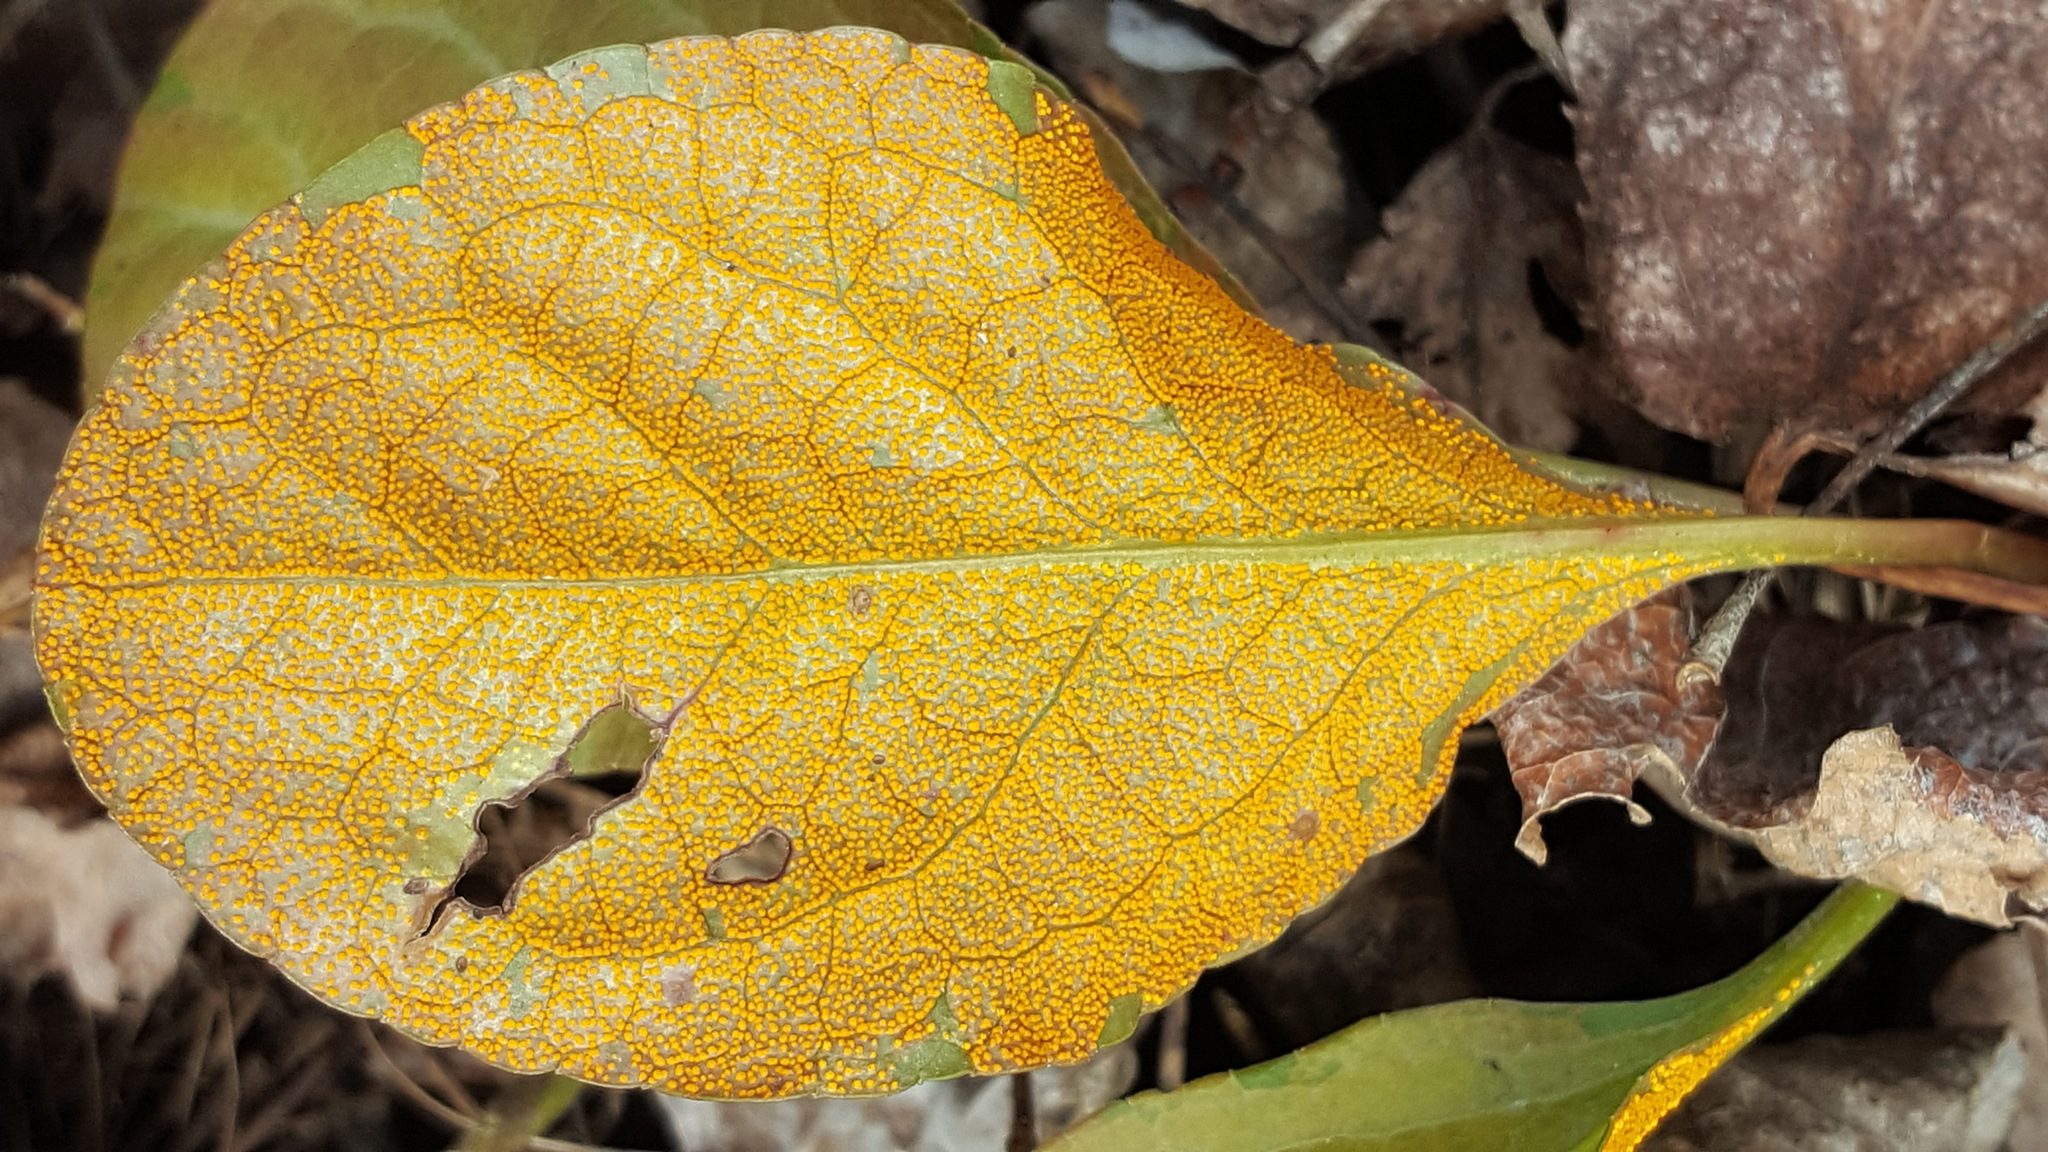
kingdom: Fungi
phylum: Basidiomycota
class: Pucciniomycetes
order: Pucciniales
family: Coleosporiaceae
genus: Rossmanomyces
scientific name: Rossmanomyces pyrolae
